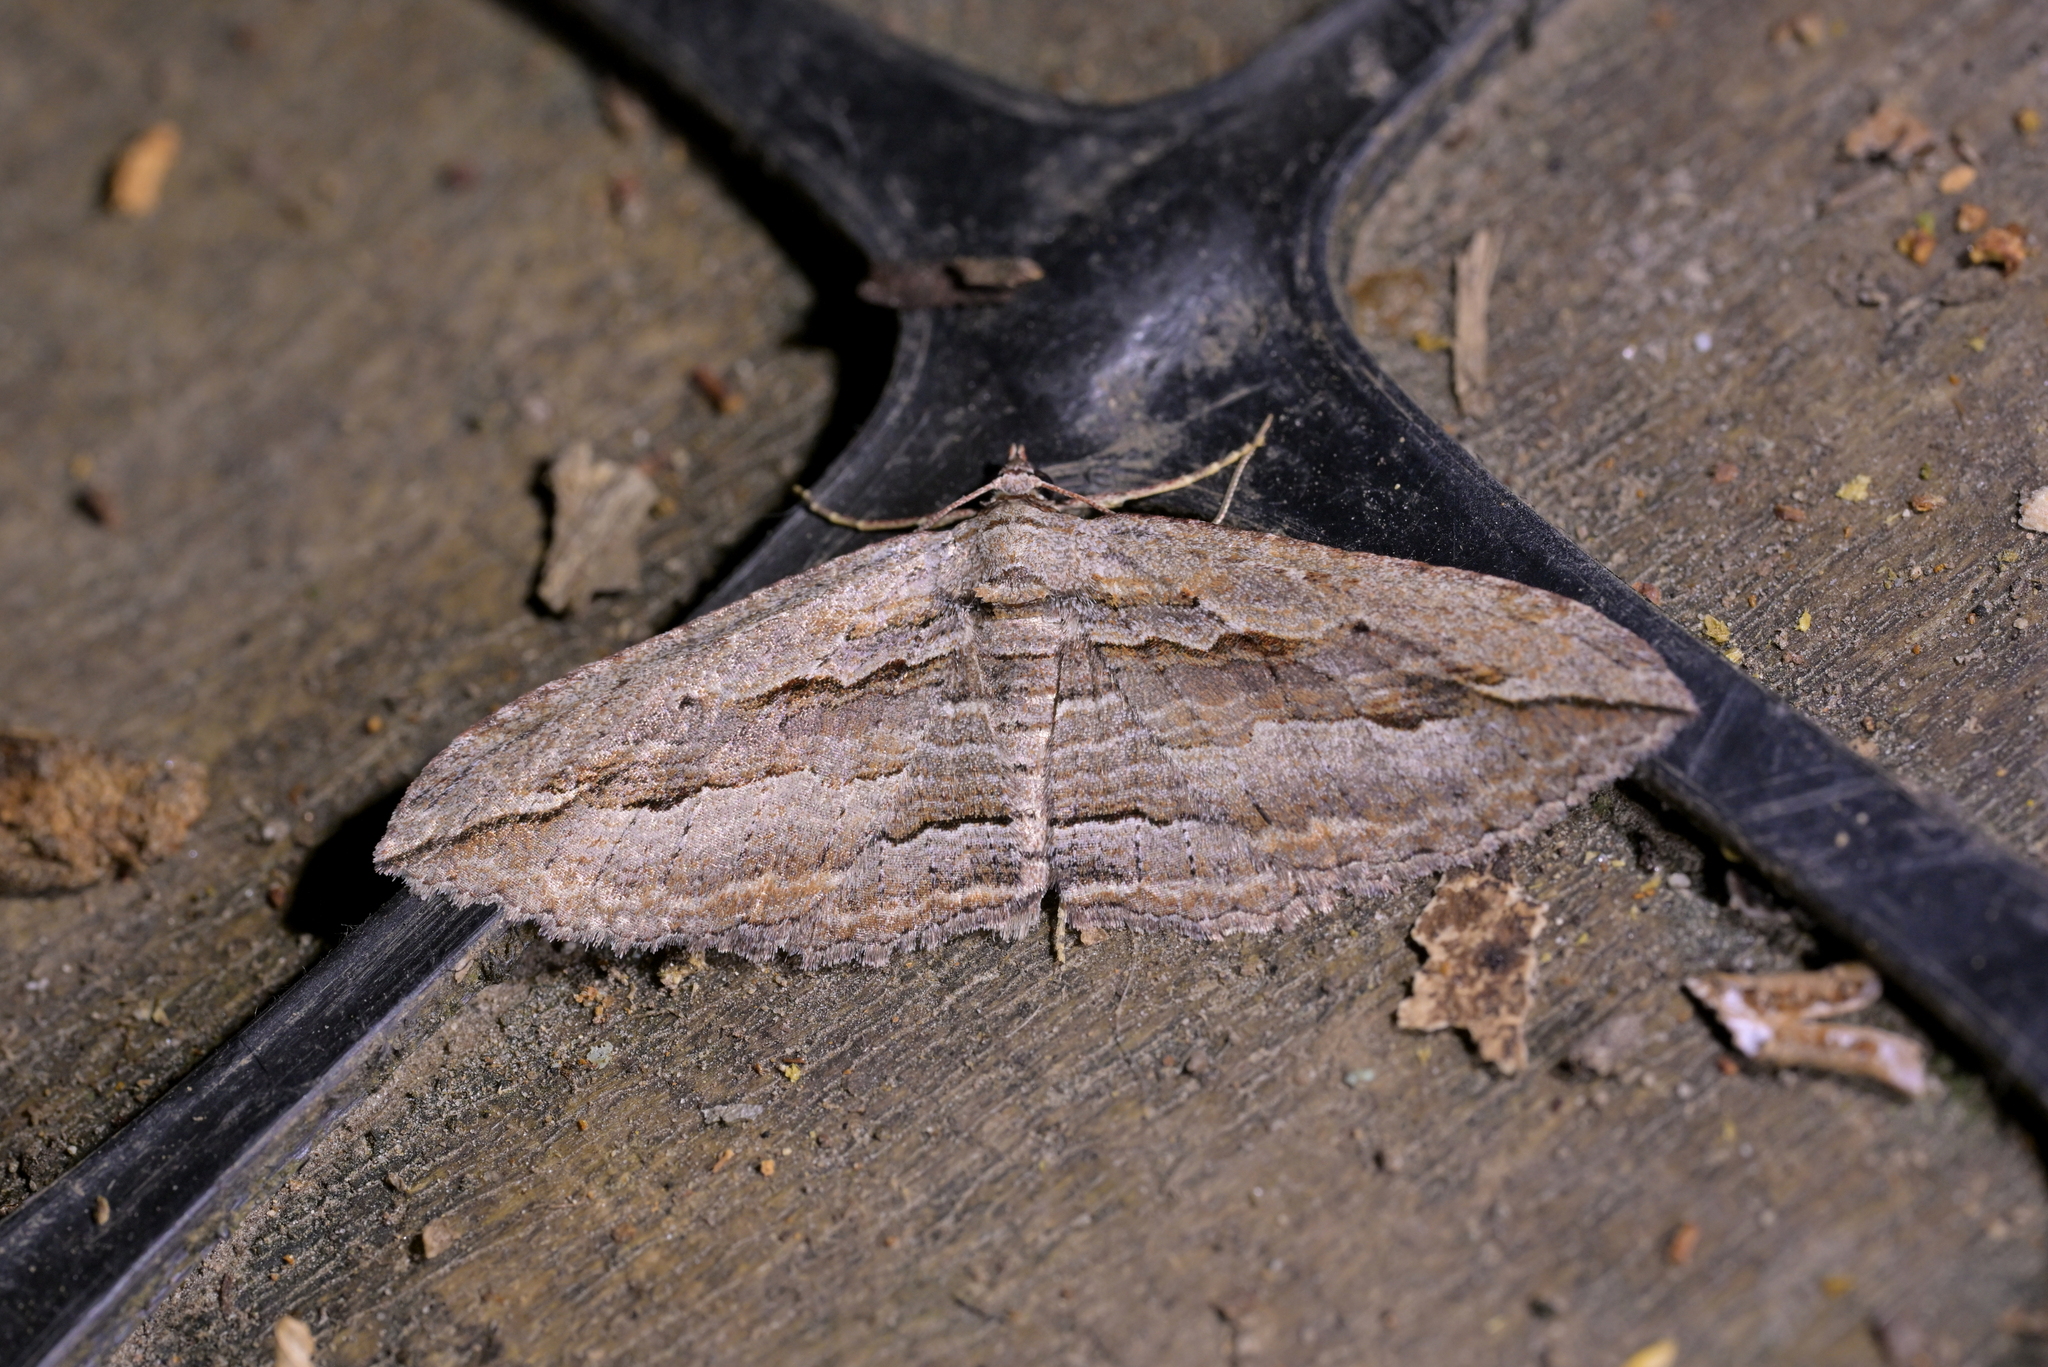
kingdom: Animalia
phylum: Arthropoda
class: Insecta
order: Lepidoptera
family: Geometridae
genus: Austrocidaria
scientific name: Austrocidaria gobiata
